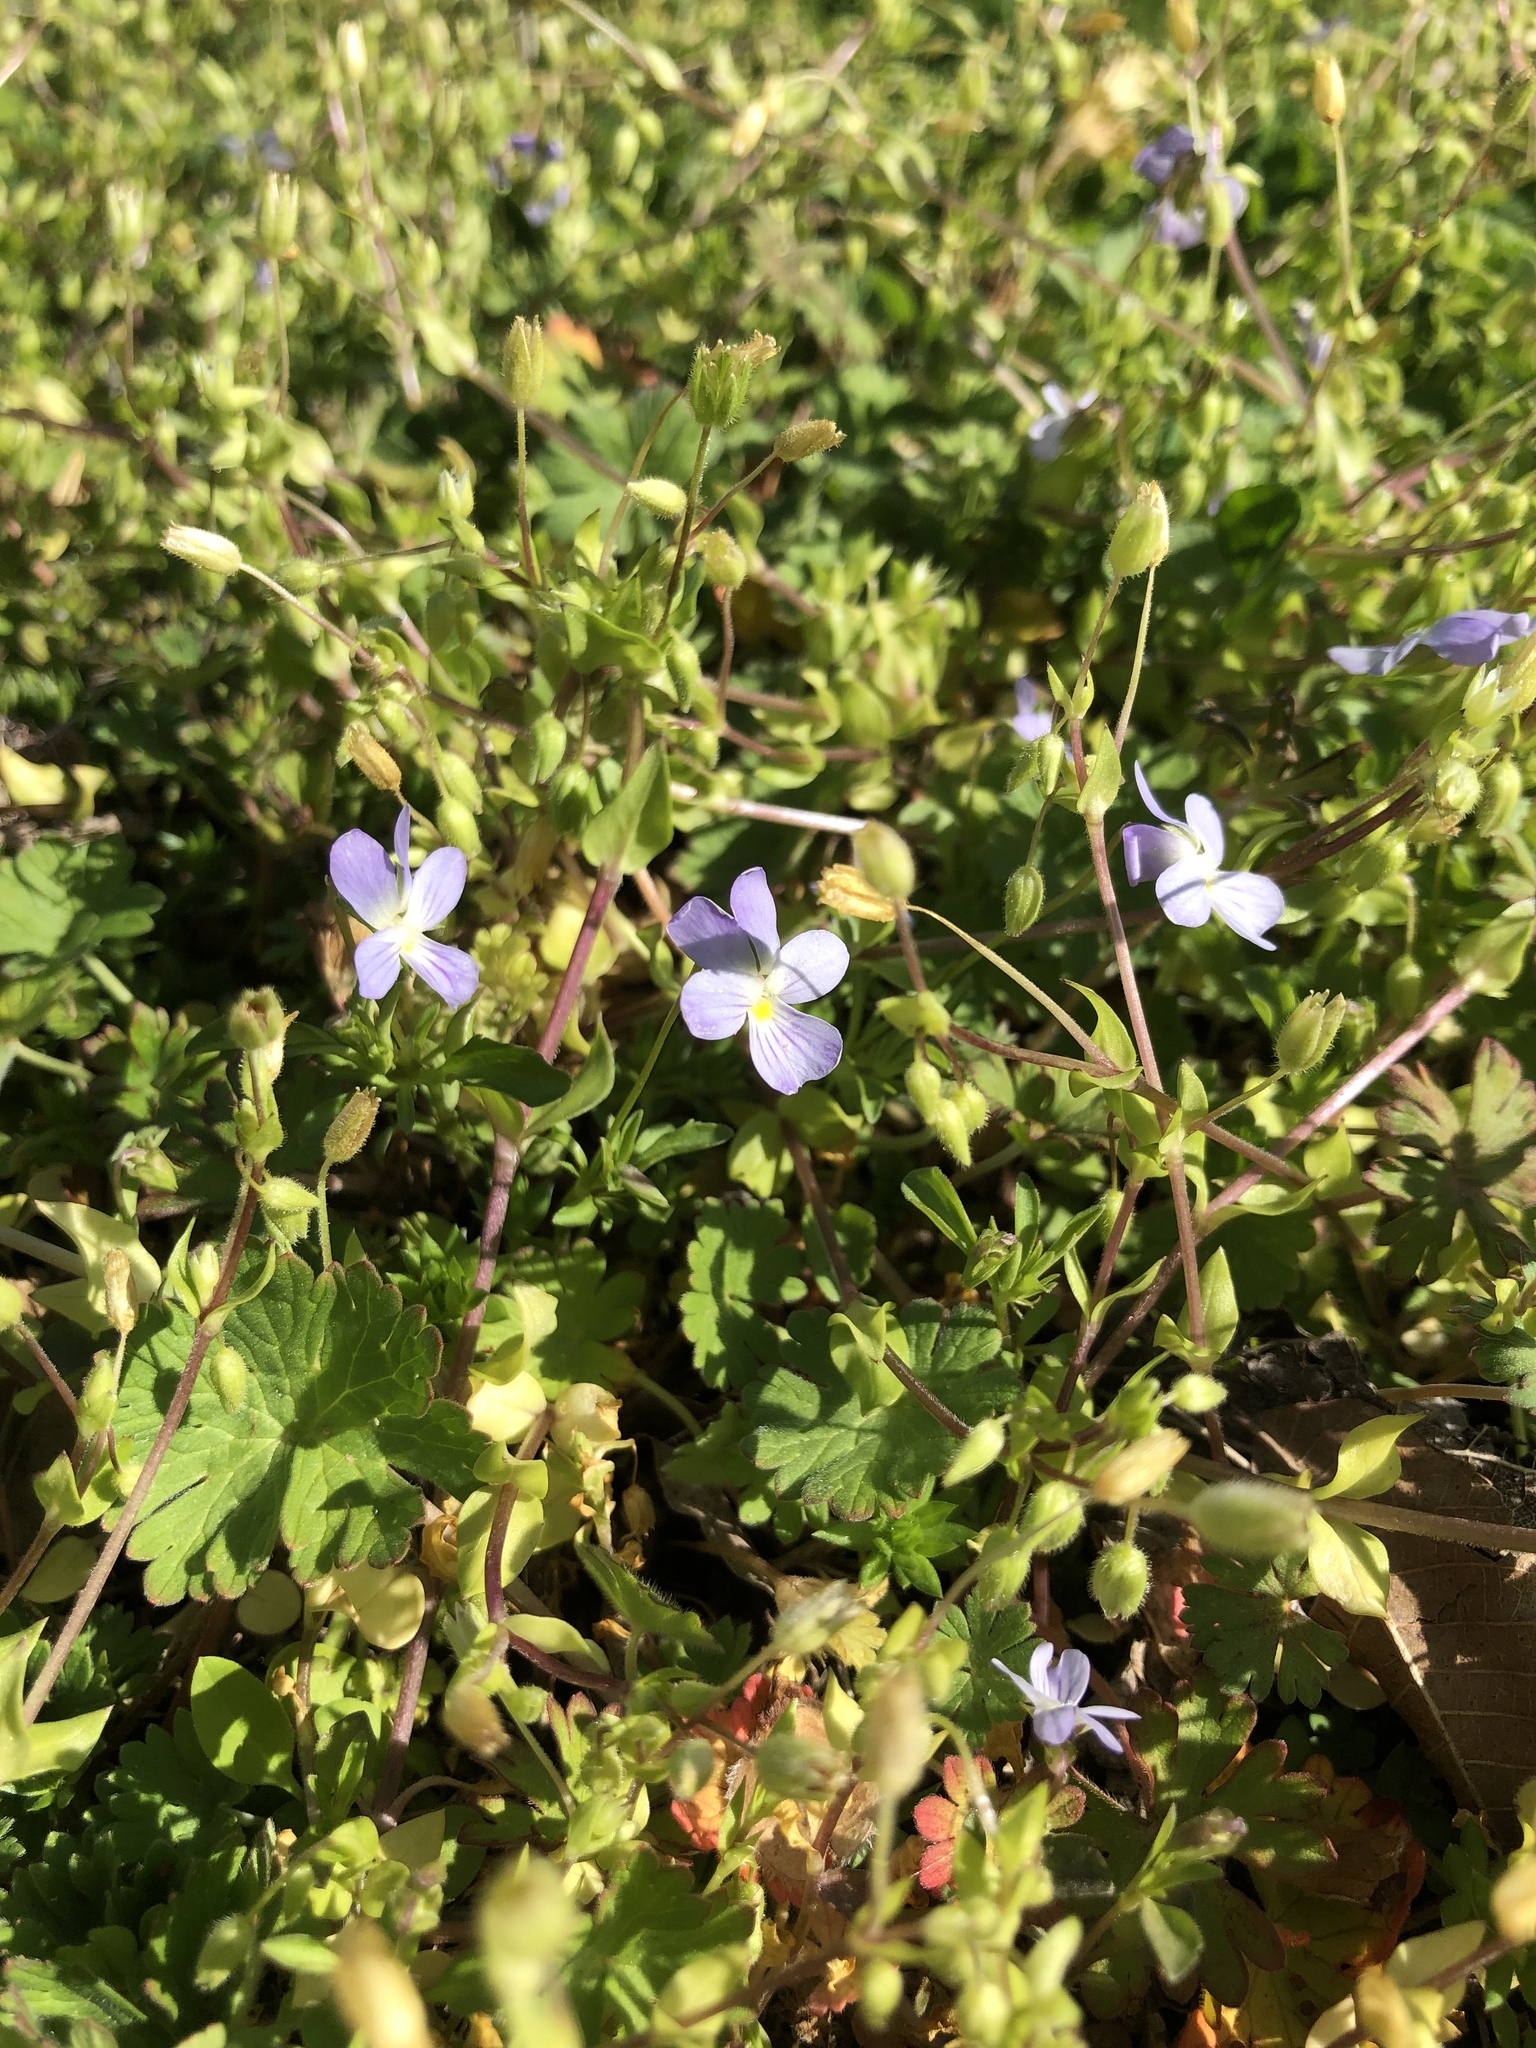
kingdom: Plantae
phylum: Tracheophyta
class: Magnoliopsida
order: Malpighiales
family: Violaceae
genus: Viola
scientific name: Viola rafinesquei
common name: American field pansy
